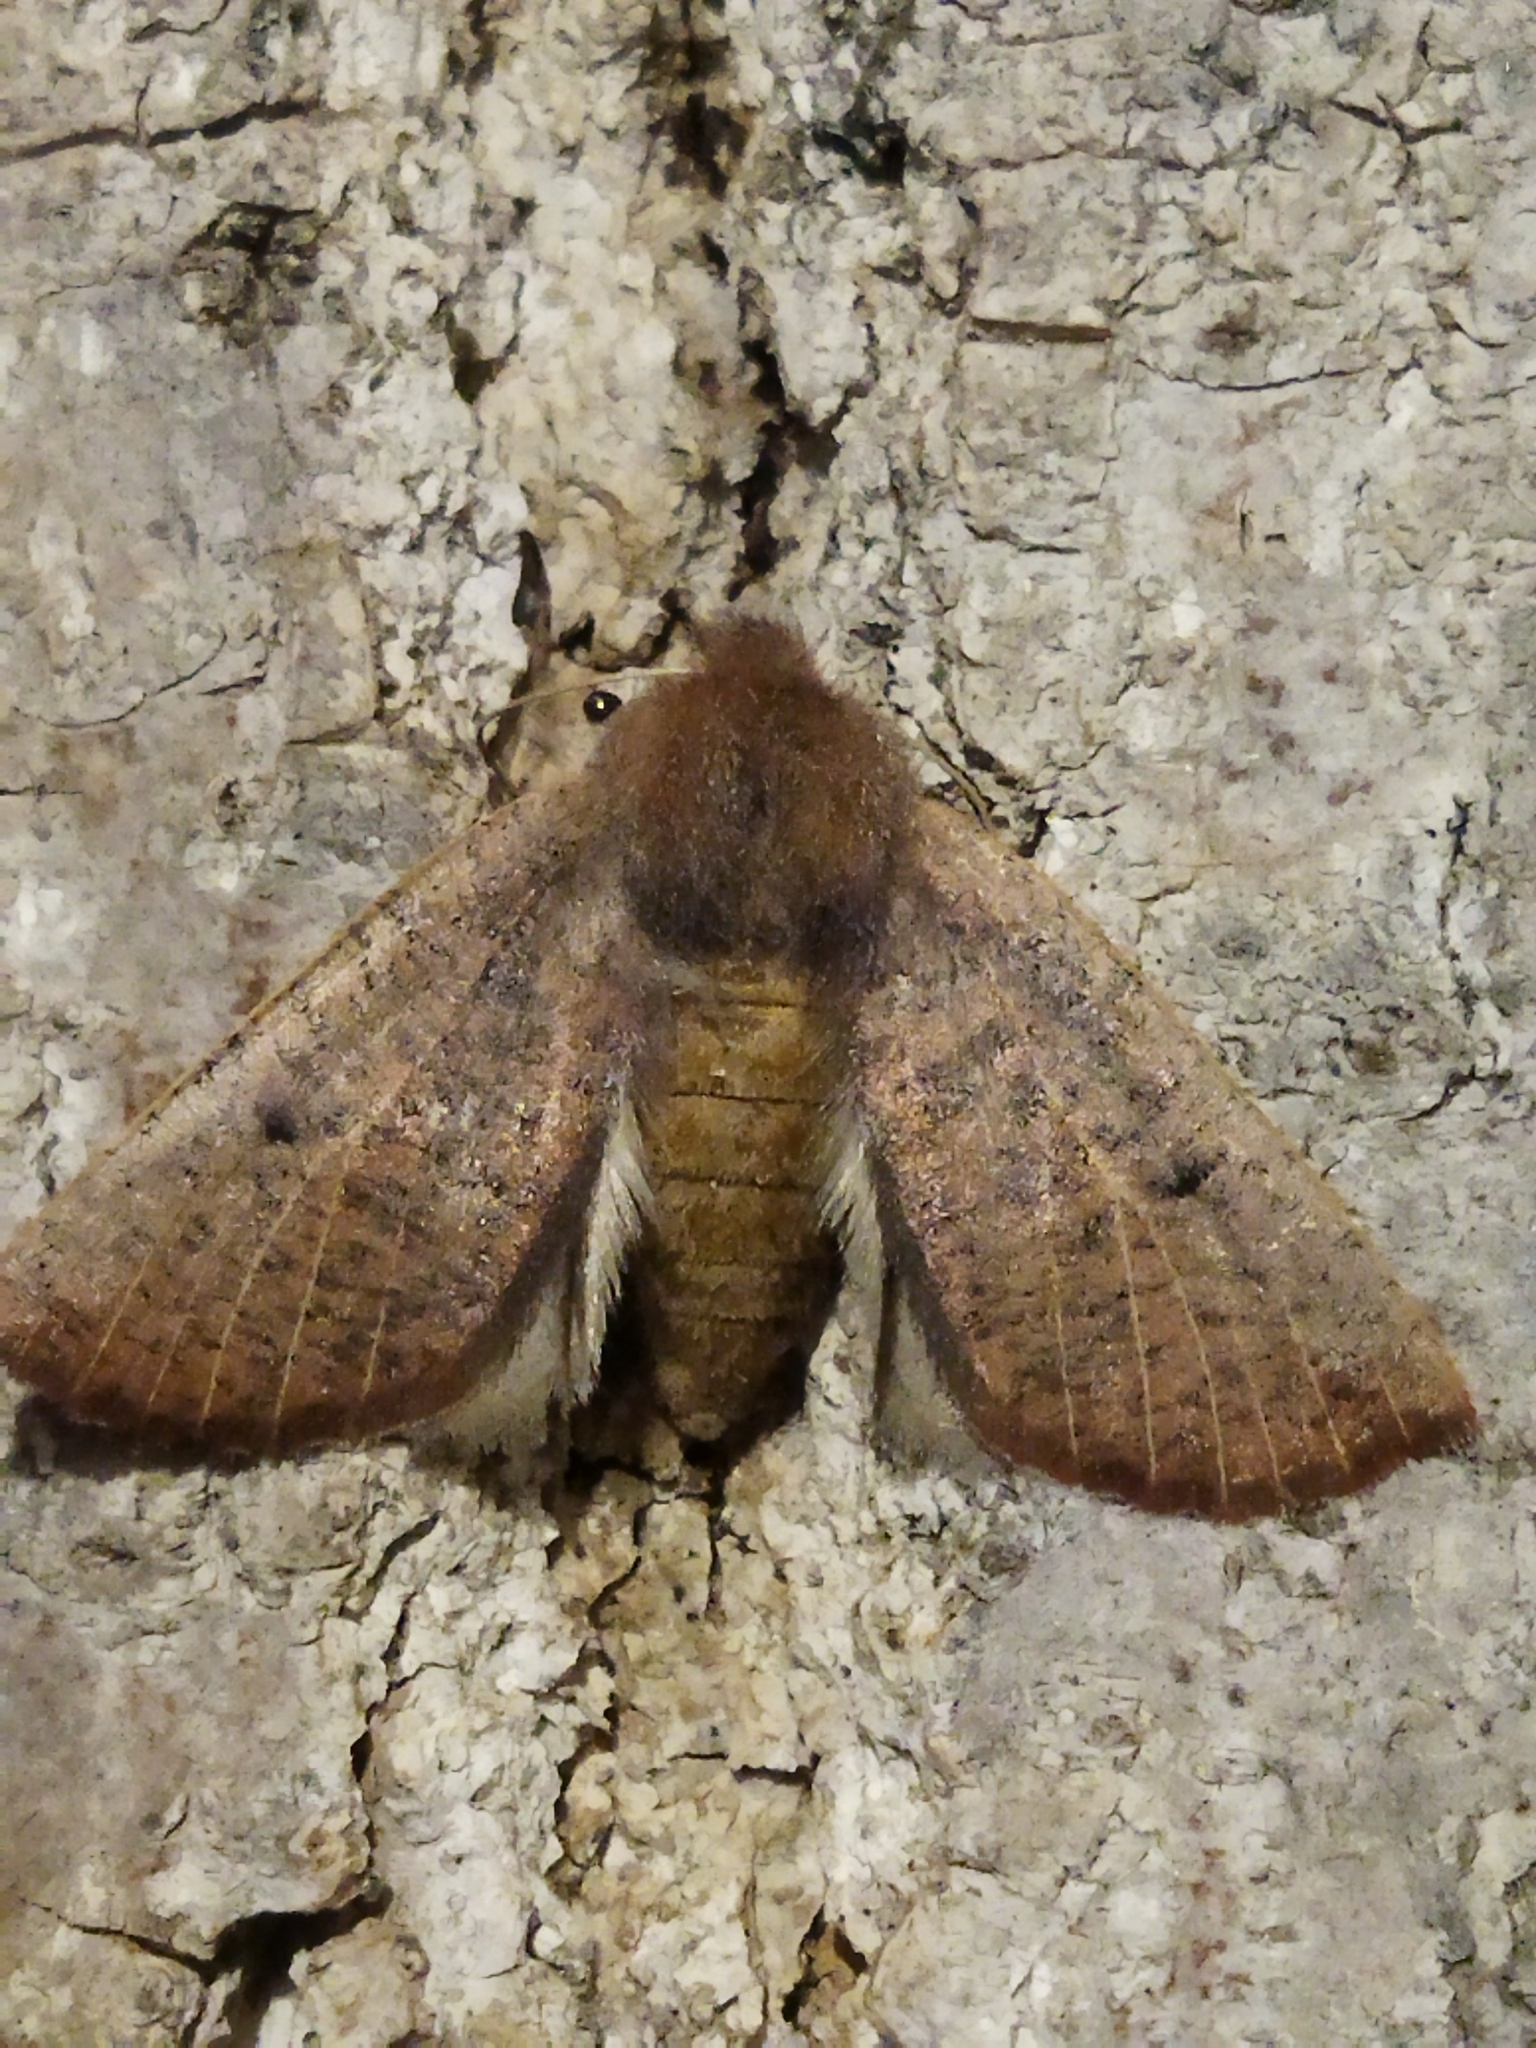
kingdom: Animalia
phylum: Arthropoda
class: Insecta
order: Lepidoptera
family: Geometridae
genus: Dasycorsa
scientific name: Dasycorsa modesta
